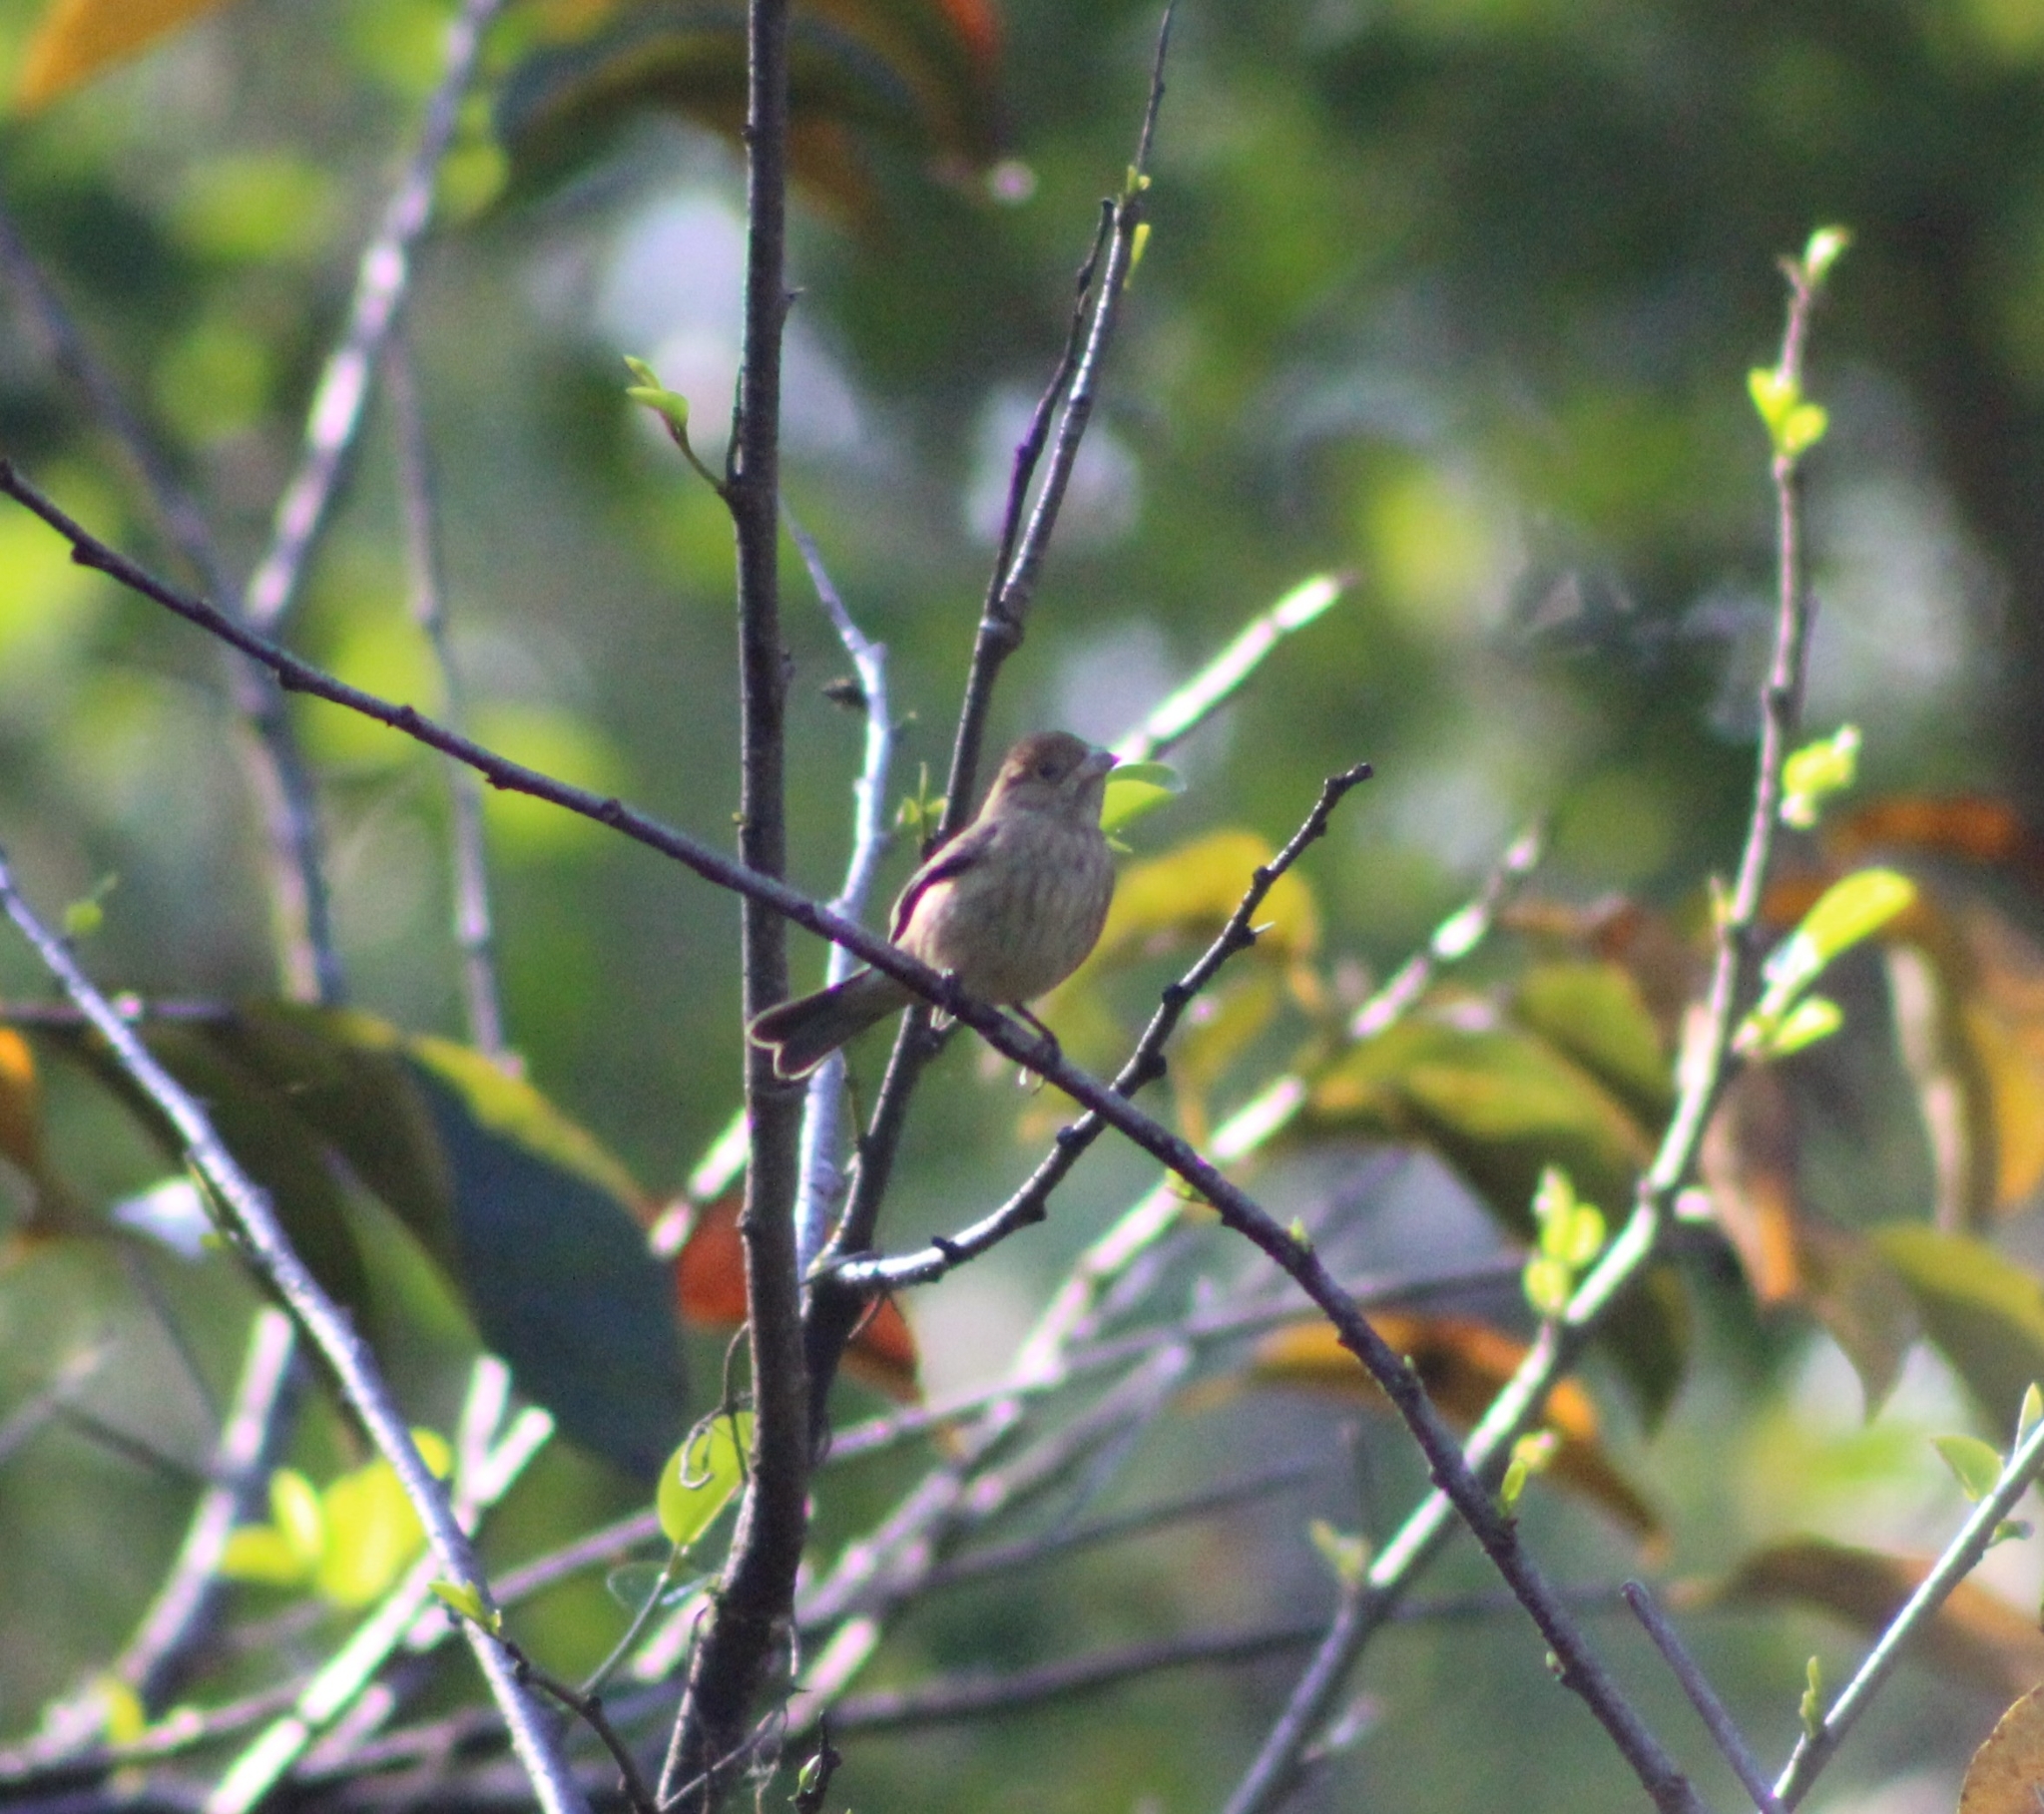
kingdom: Animalia
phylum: Chordata
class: Aves
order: Passeriformes
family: Cardinalidae
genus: Passerina
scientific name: Passerina cyanea
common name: Indigo bunting
